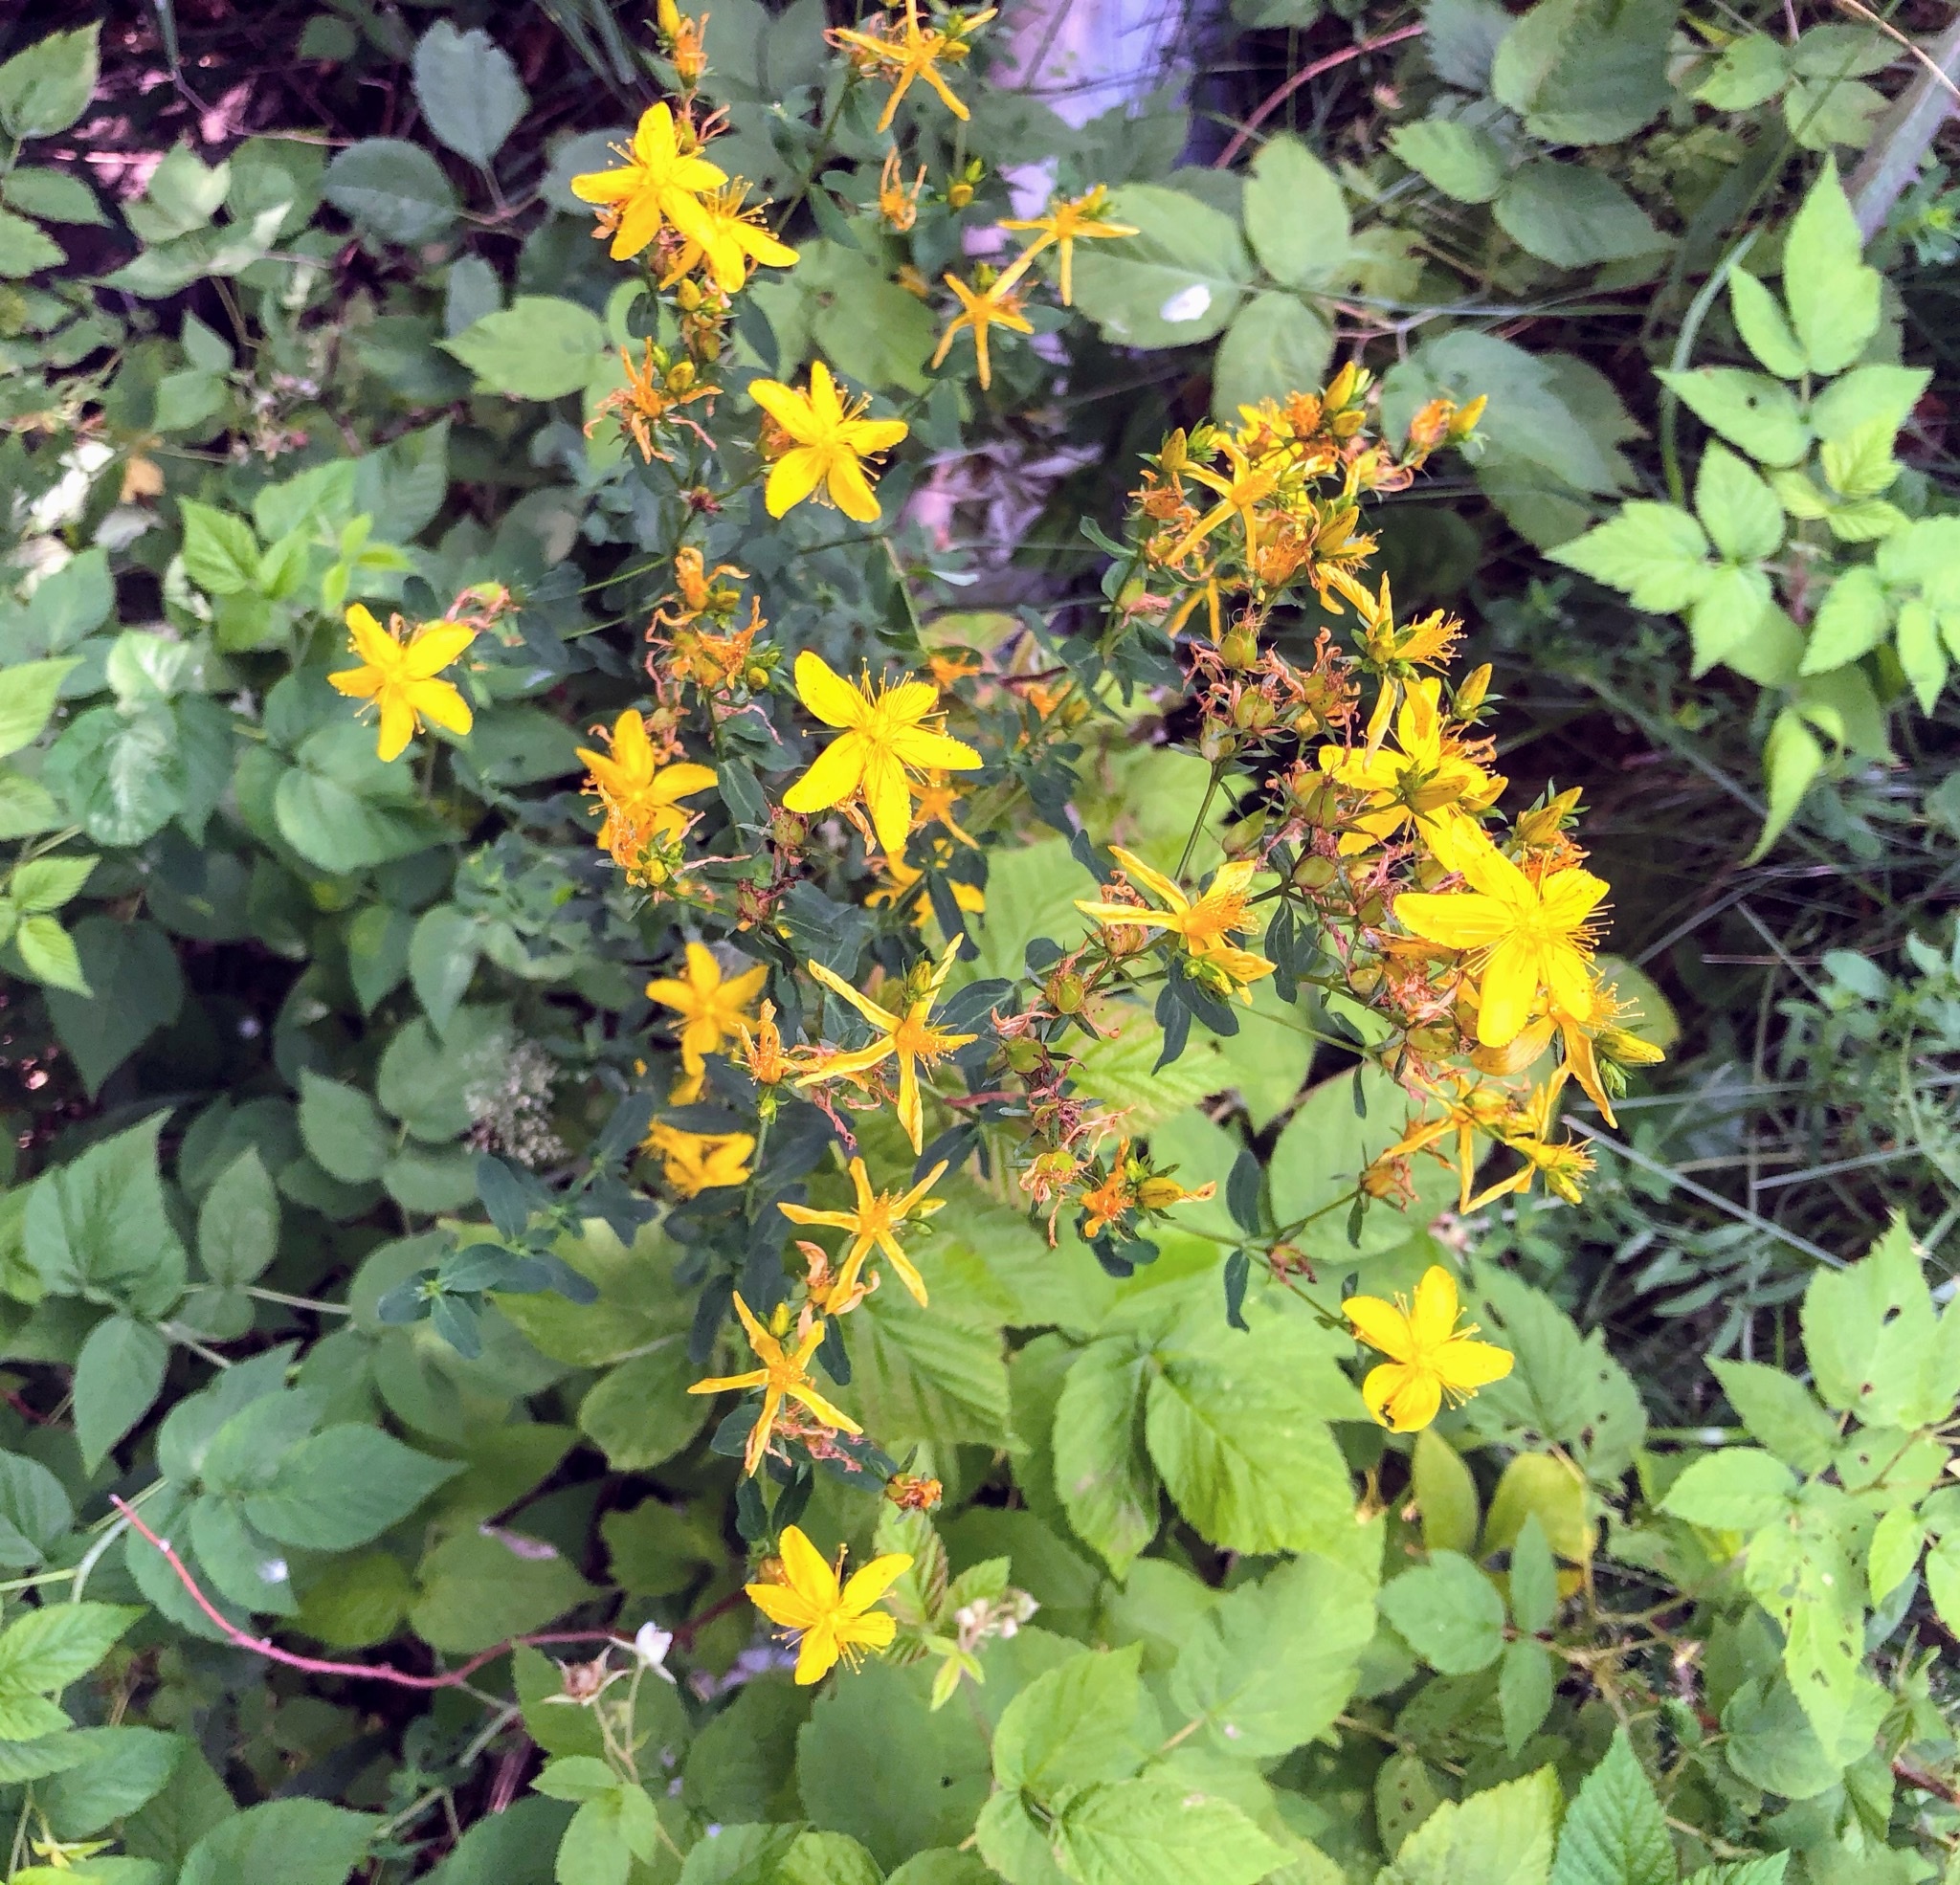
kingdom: Plantae
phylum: Tracheophyta
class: Magnoliopsida
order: Malpighiales
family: Hypericaceae
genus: Hypericum
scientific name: Hypericum perforatum
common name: Common st. johnswort
